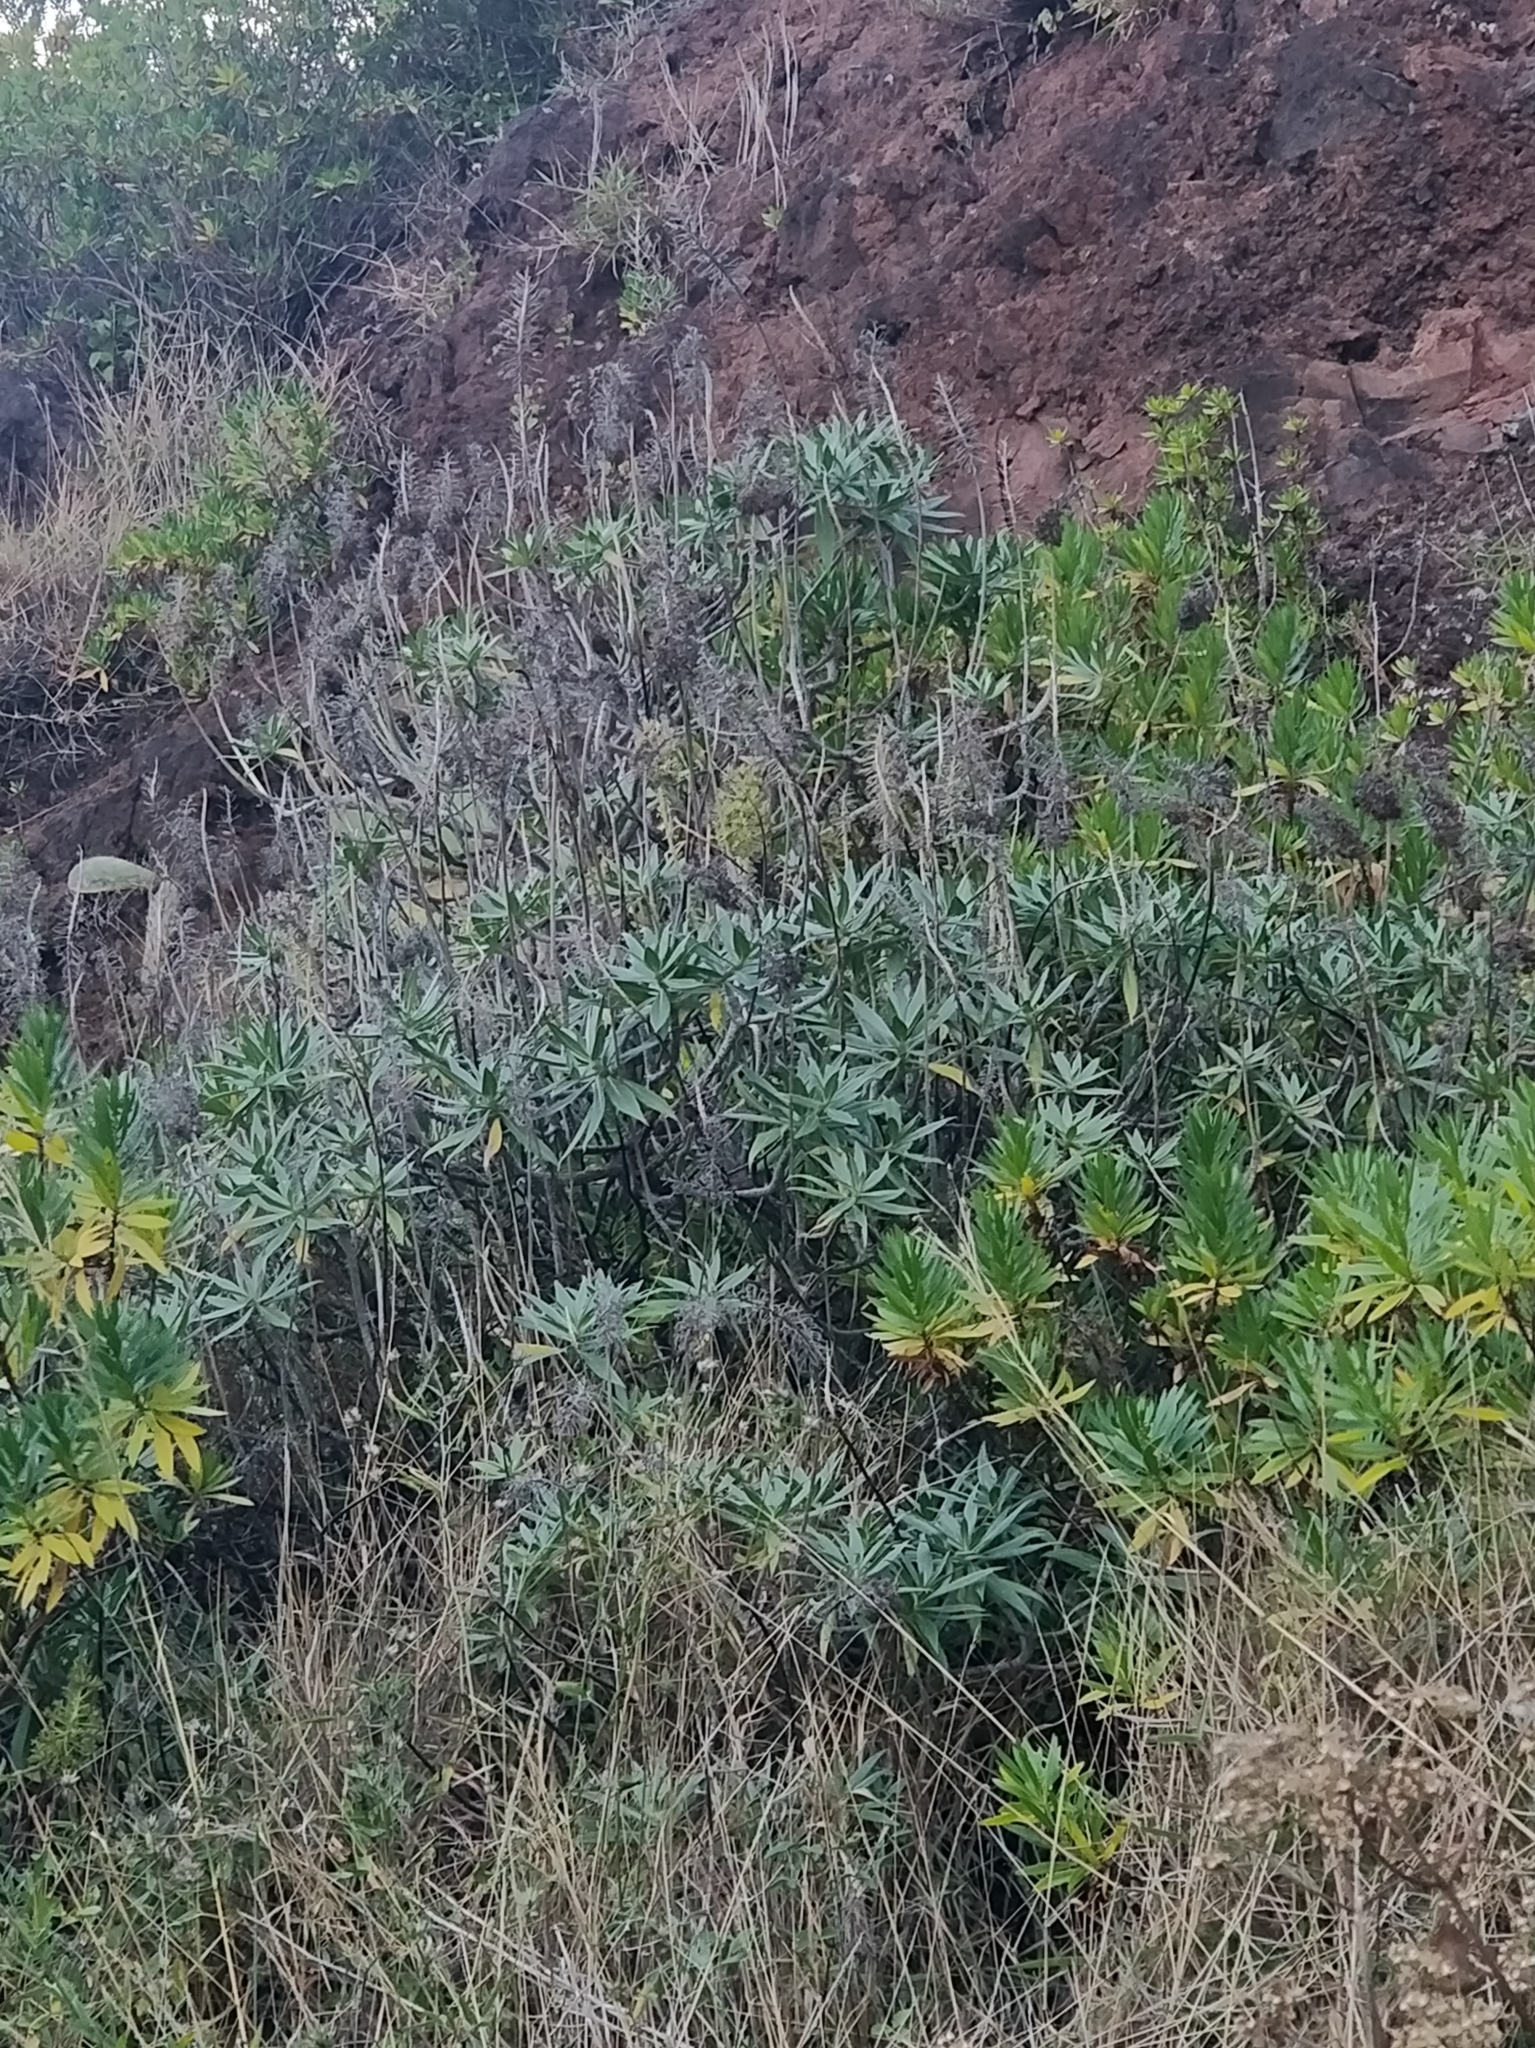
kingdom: Plantae
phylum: Tracheophyta
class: Magnoliopsida
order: Boraginales
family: Boraginaceae
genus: Echium
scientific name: Echium nervosum
